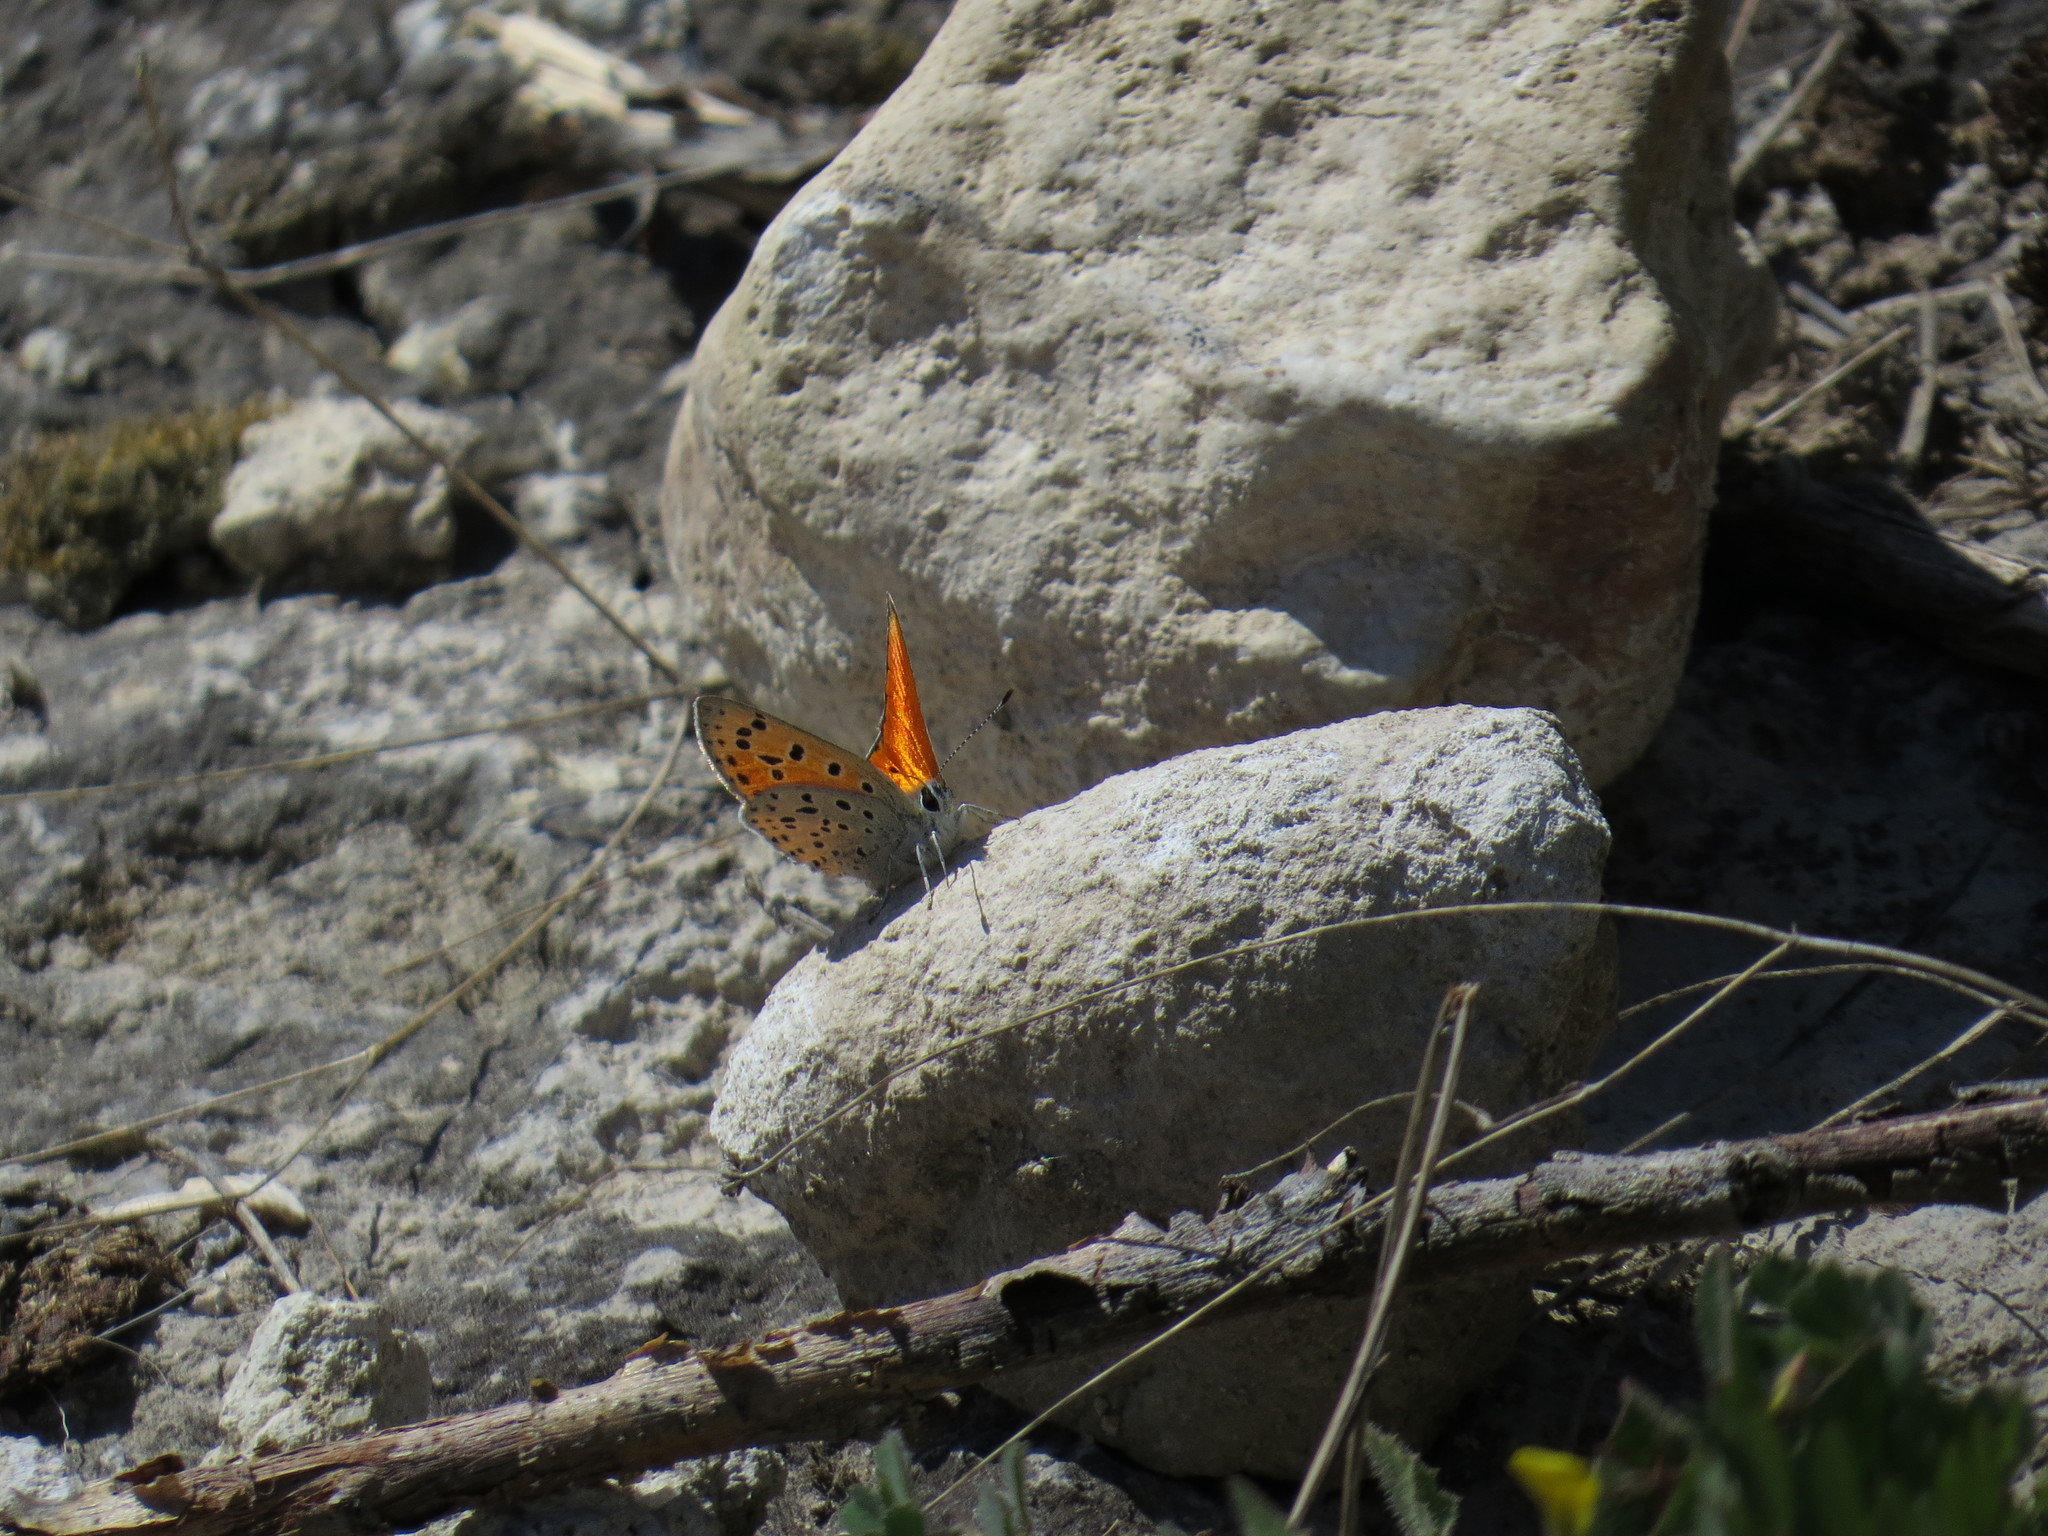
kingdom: Animalia
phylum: Arthropoda
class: Insecta
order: Lepidoptera
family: Lycaenidae
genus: Sarthusia
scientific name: Sarthusia sarthus
